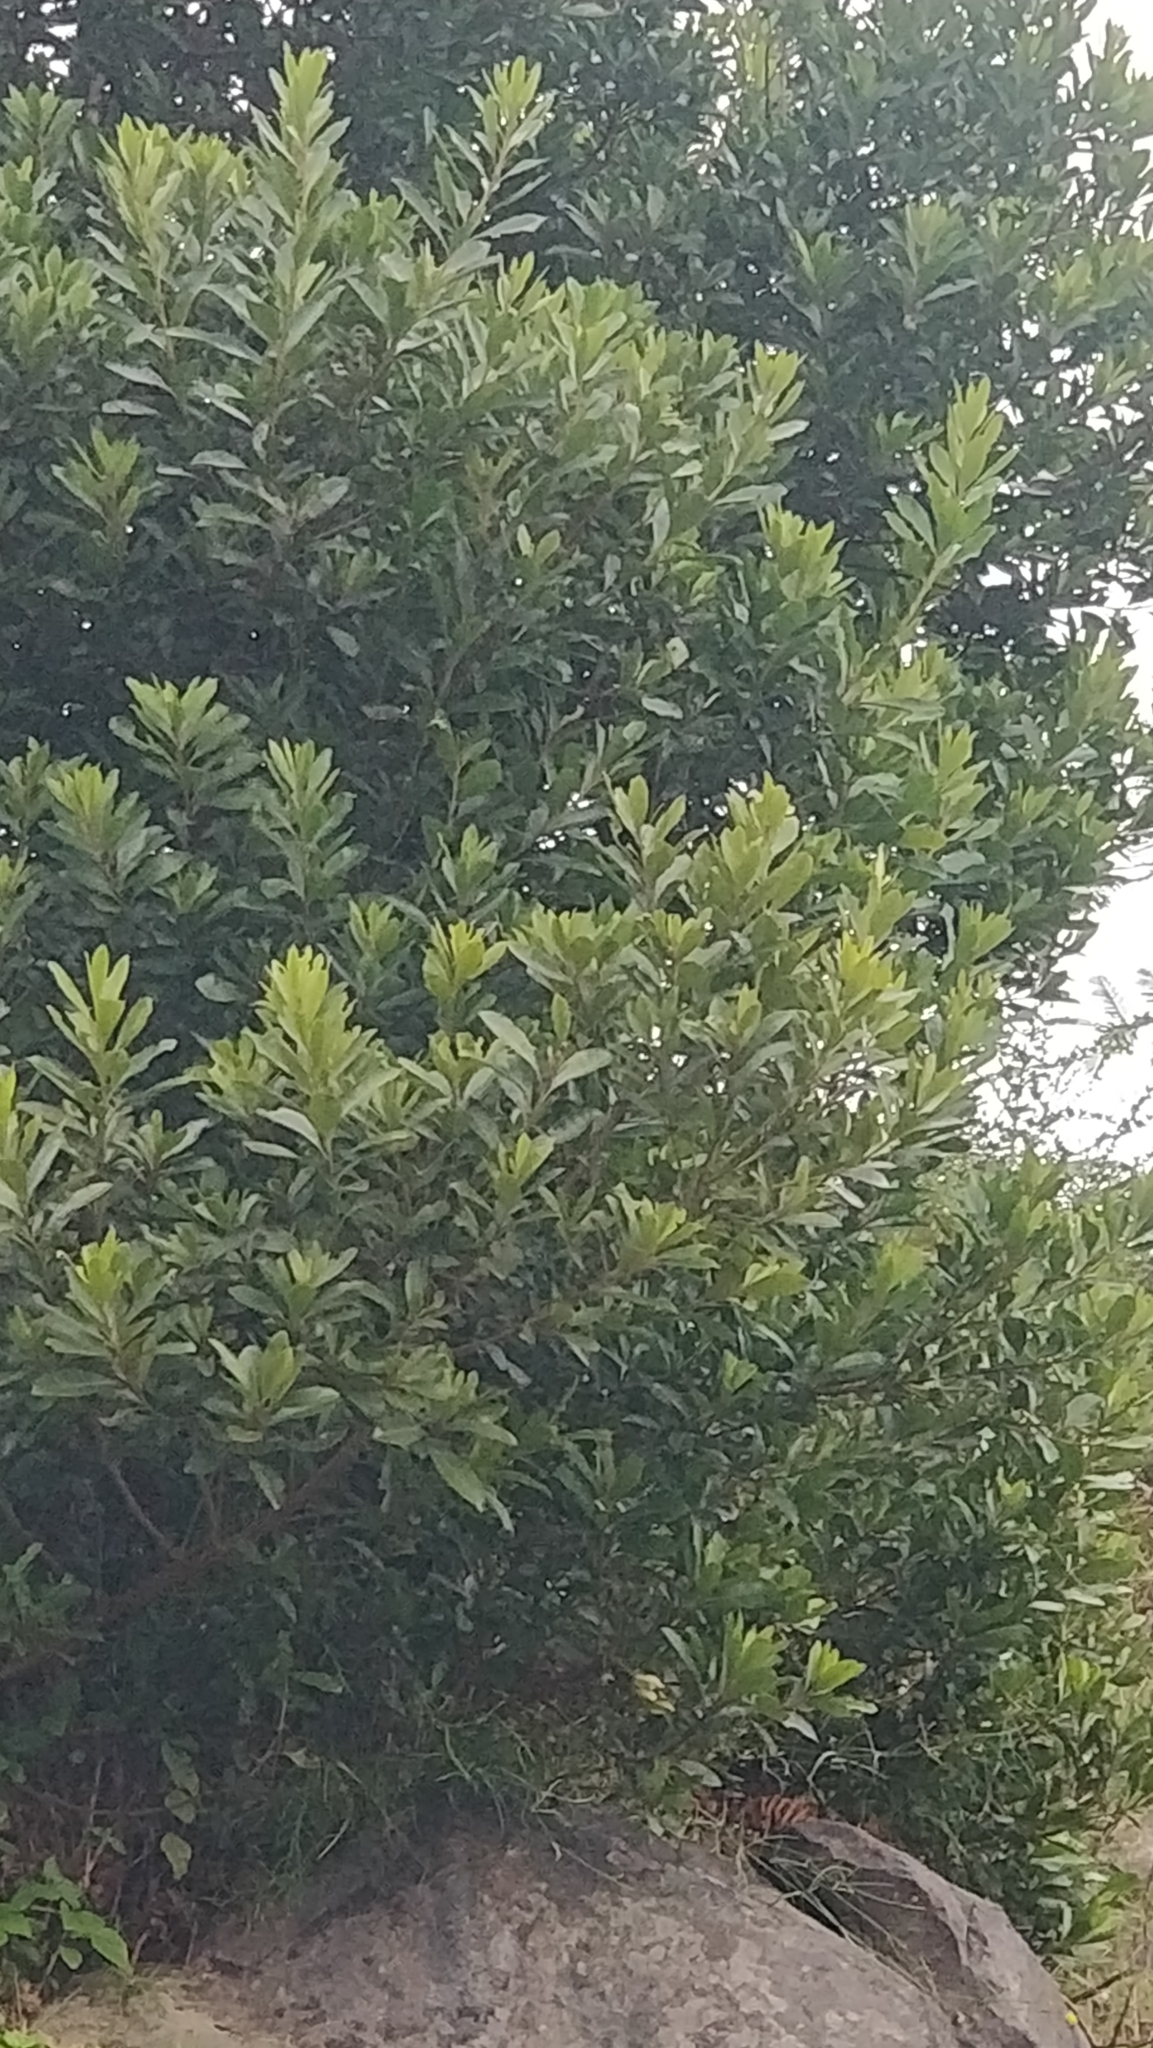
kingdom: Plantae
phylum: Tracheophyta
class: Magnoliopsida
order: Fagales
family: Myricaceae
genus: Morella
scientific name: Morella faya
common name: Firetree
